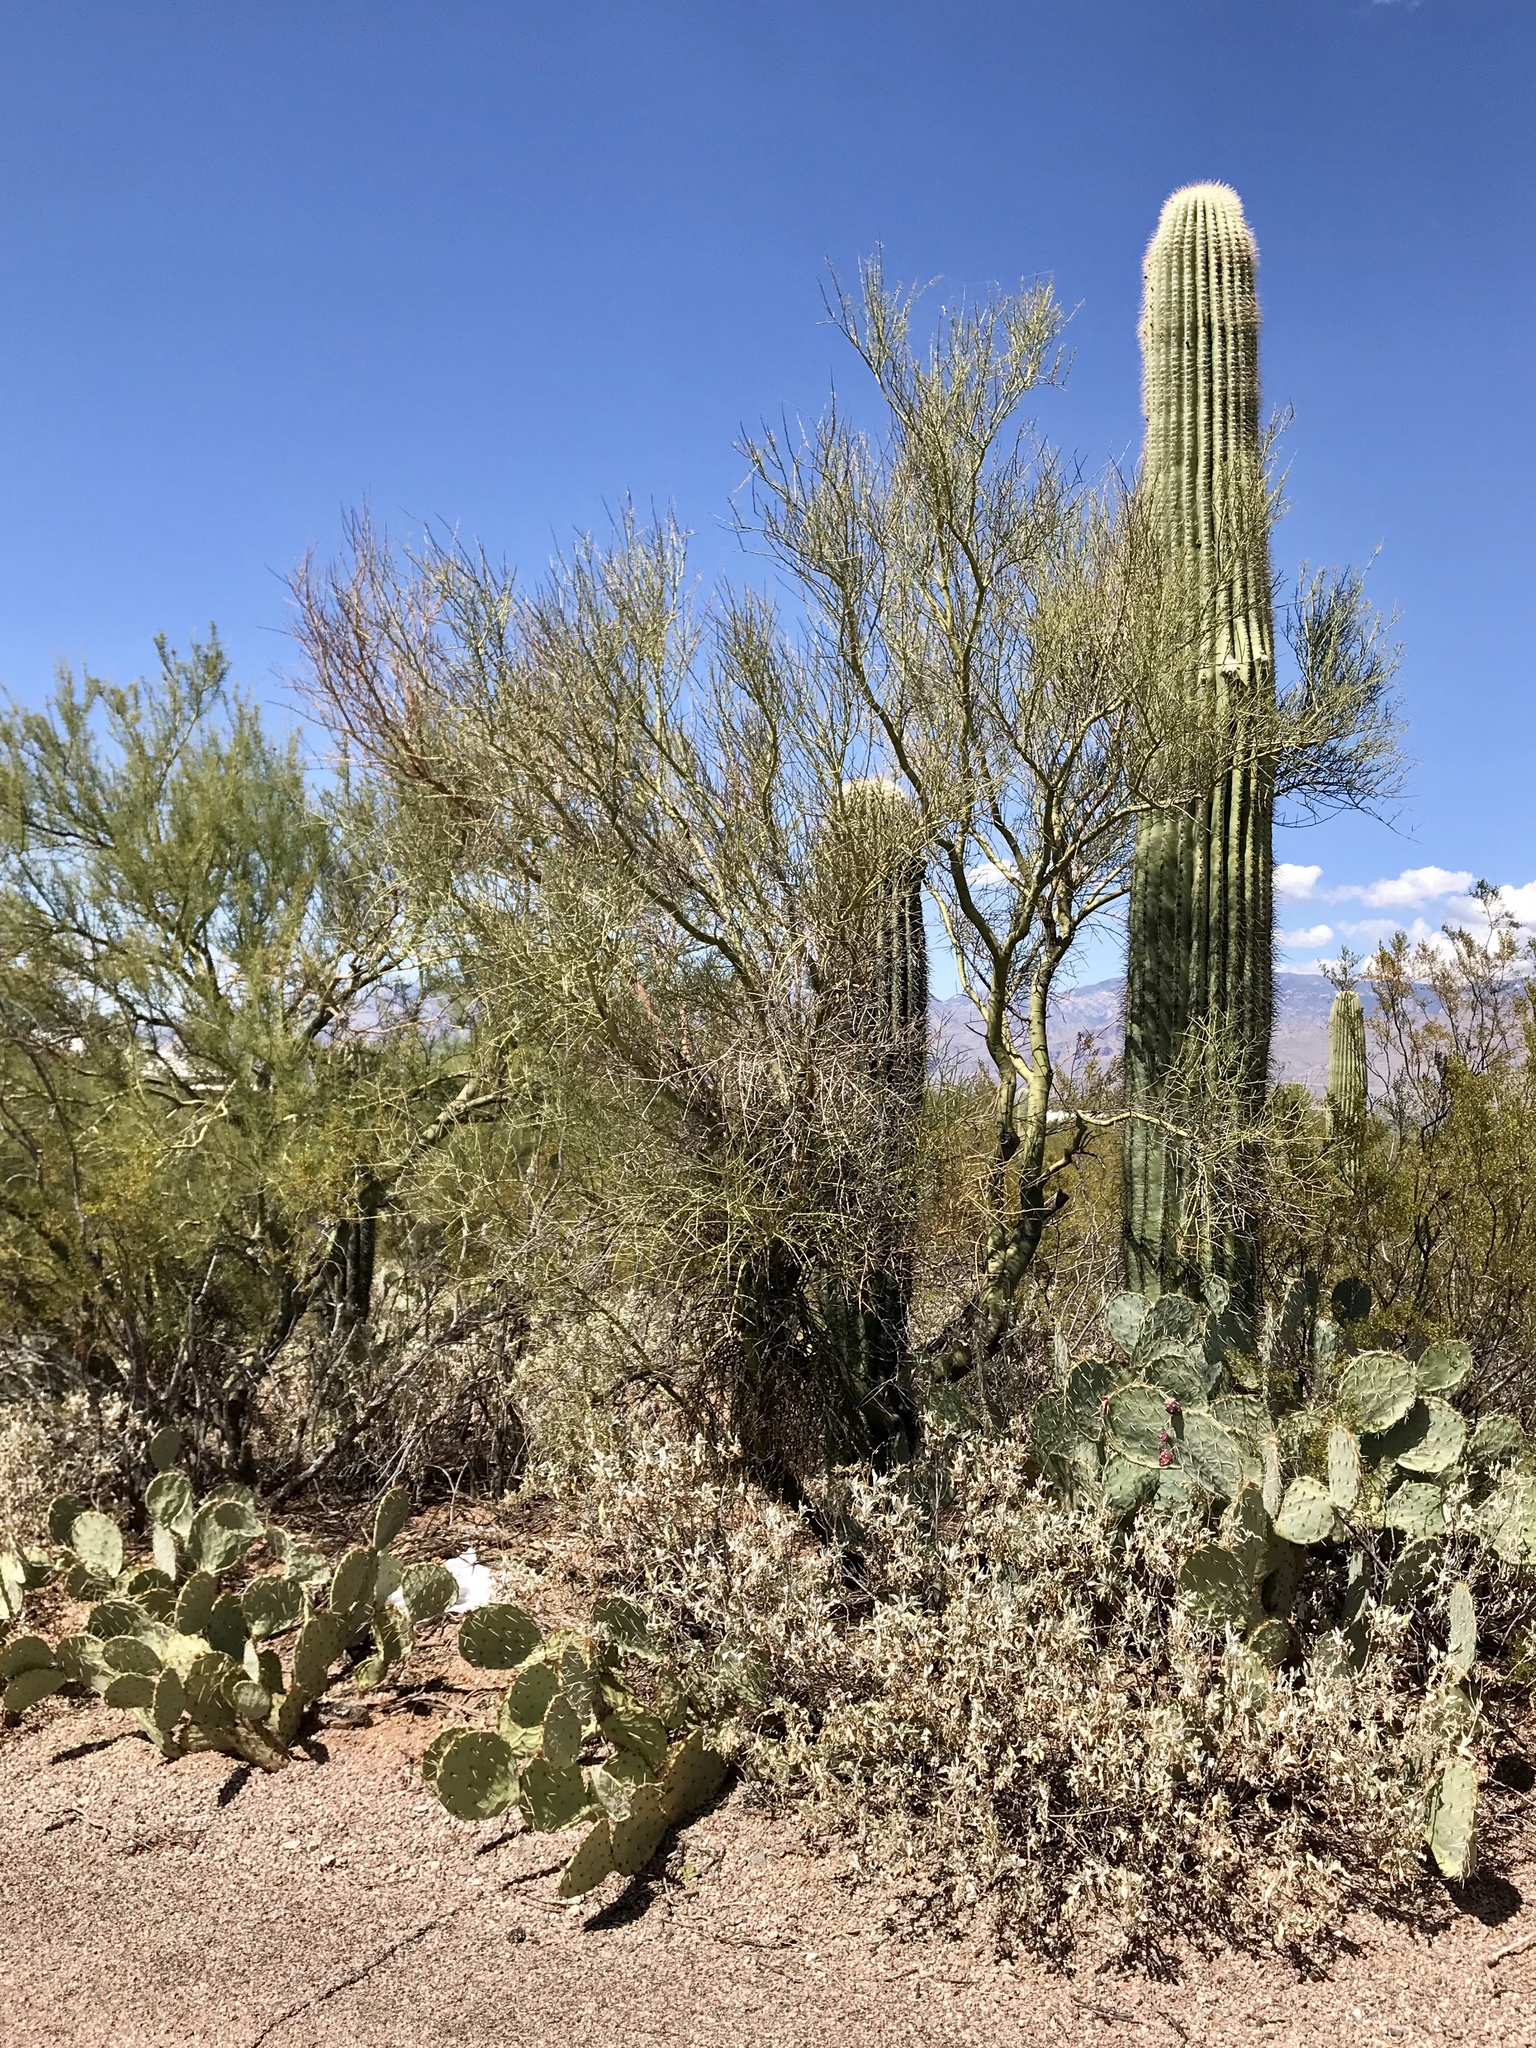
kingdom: Plantae
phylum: Tracheophyta
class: Magnoliopsida
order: Fabales
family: Fabaceae
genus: Parkinsonia
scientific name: Parkinsonia florida
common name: Blue paloverde
